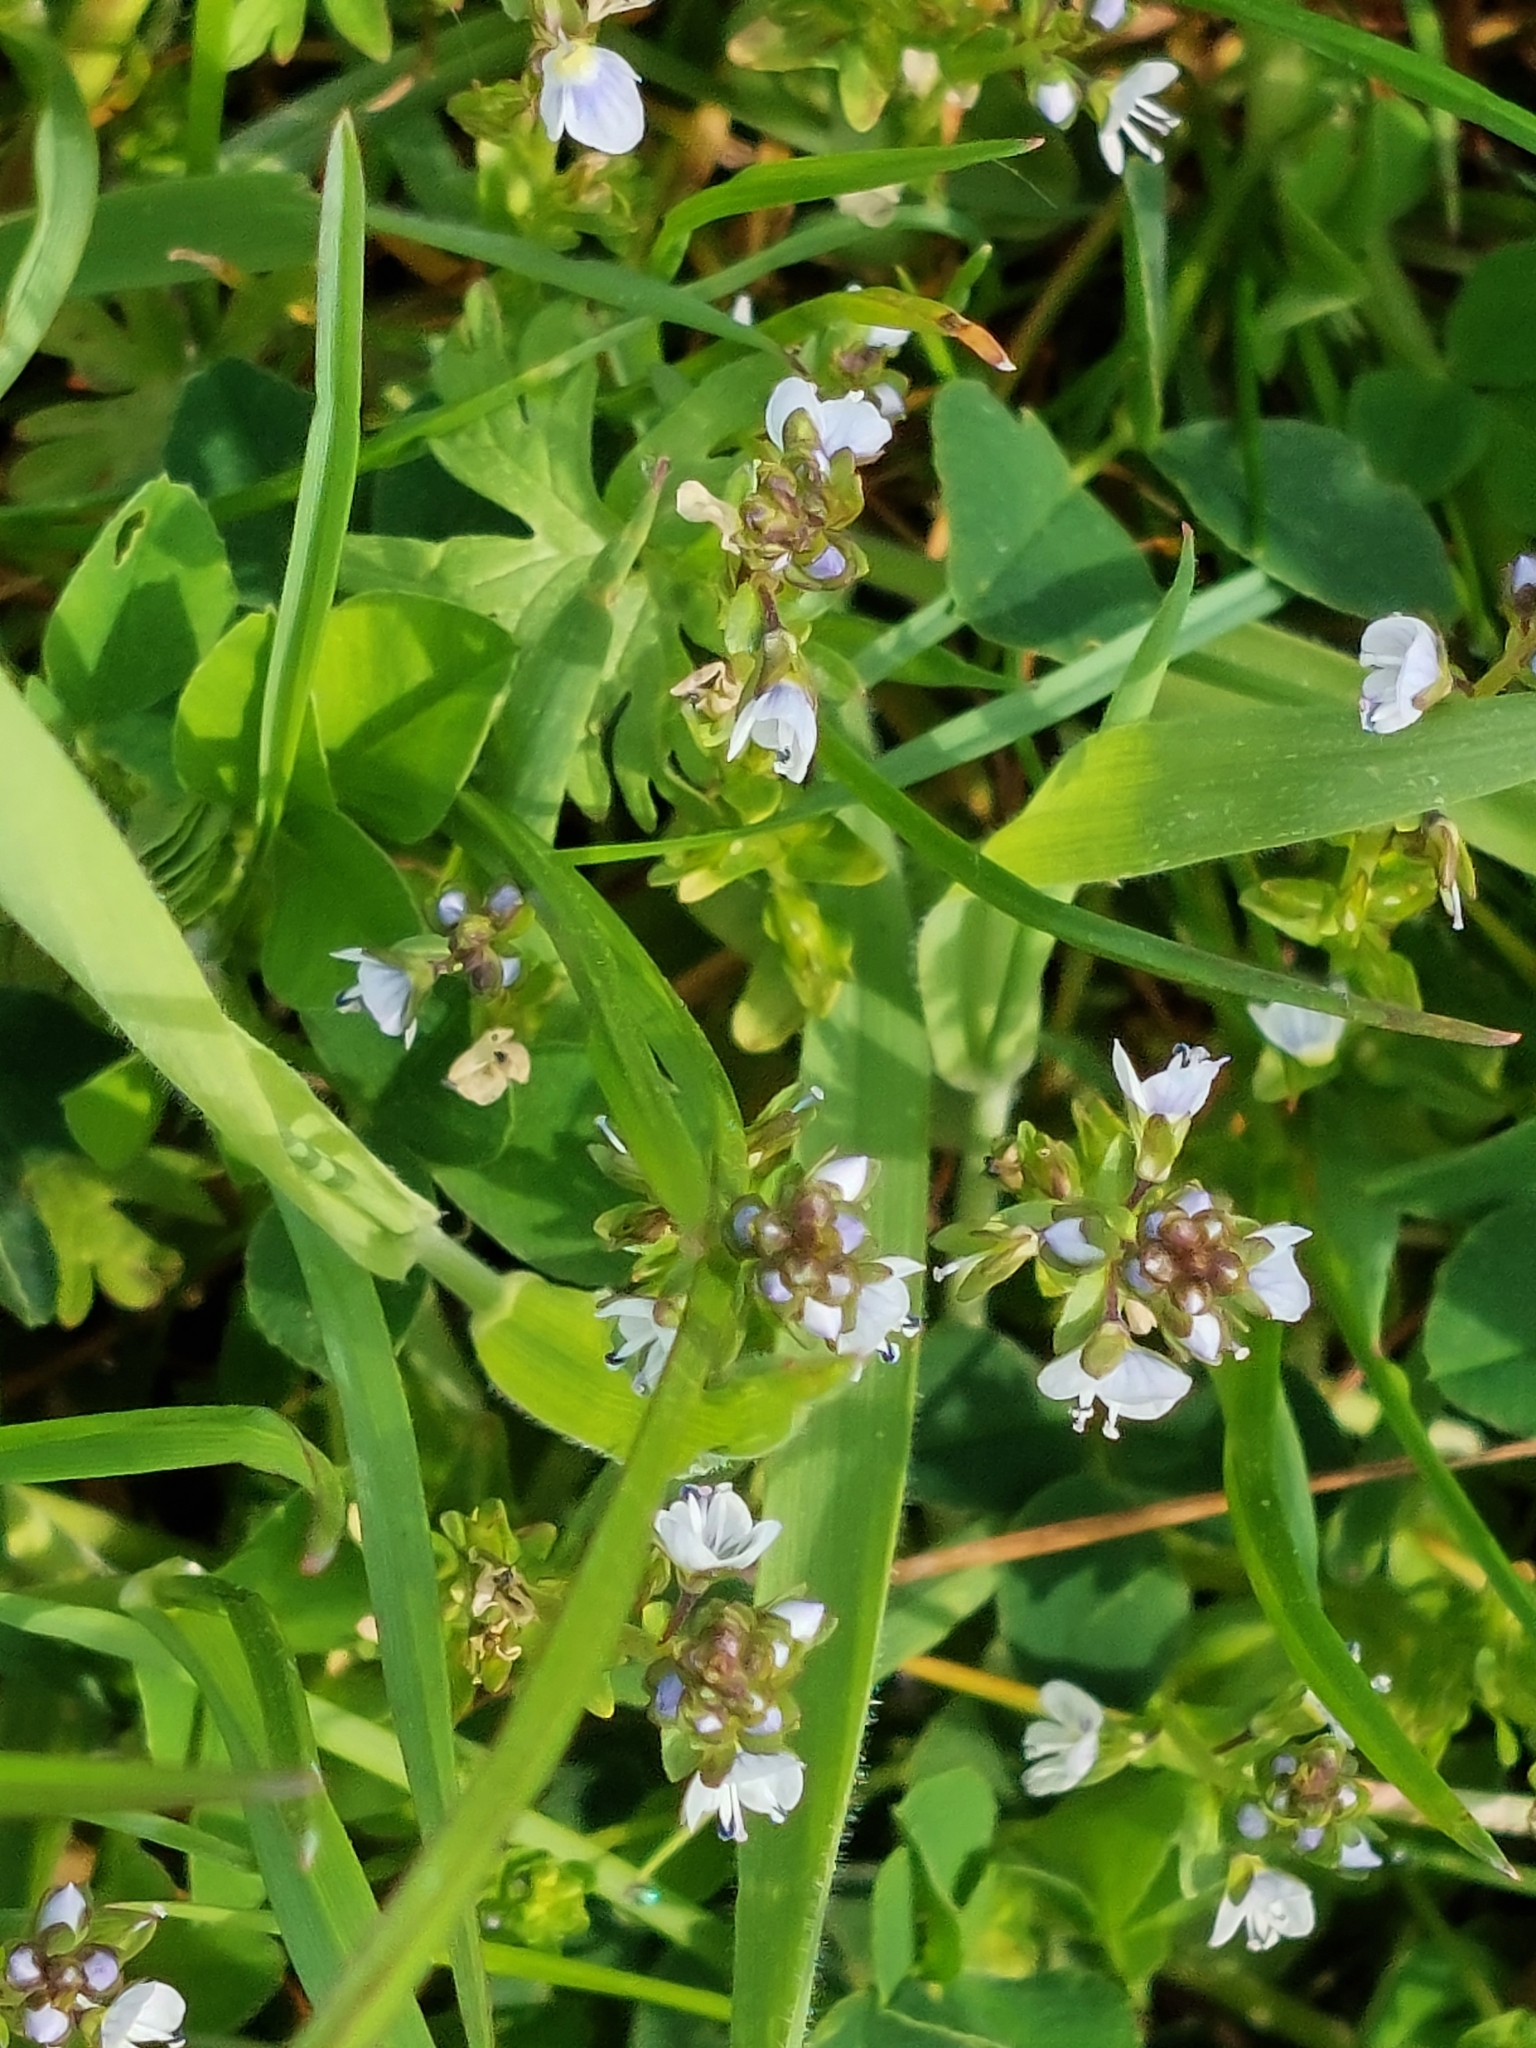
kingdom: Plantae
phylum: Tracheophyta
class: Magnoliopsida
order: Lamiales
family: Plantaginaceae
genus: Veronica
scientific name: Veronica serpyllifolia
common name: Thyme-leaved speedwell
